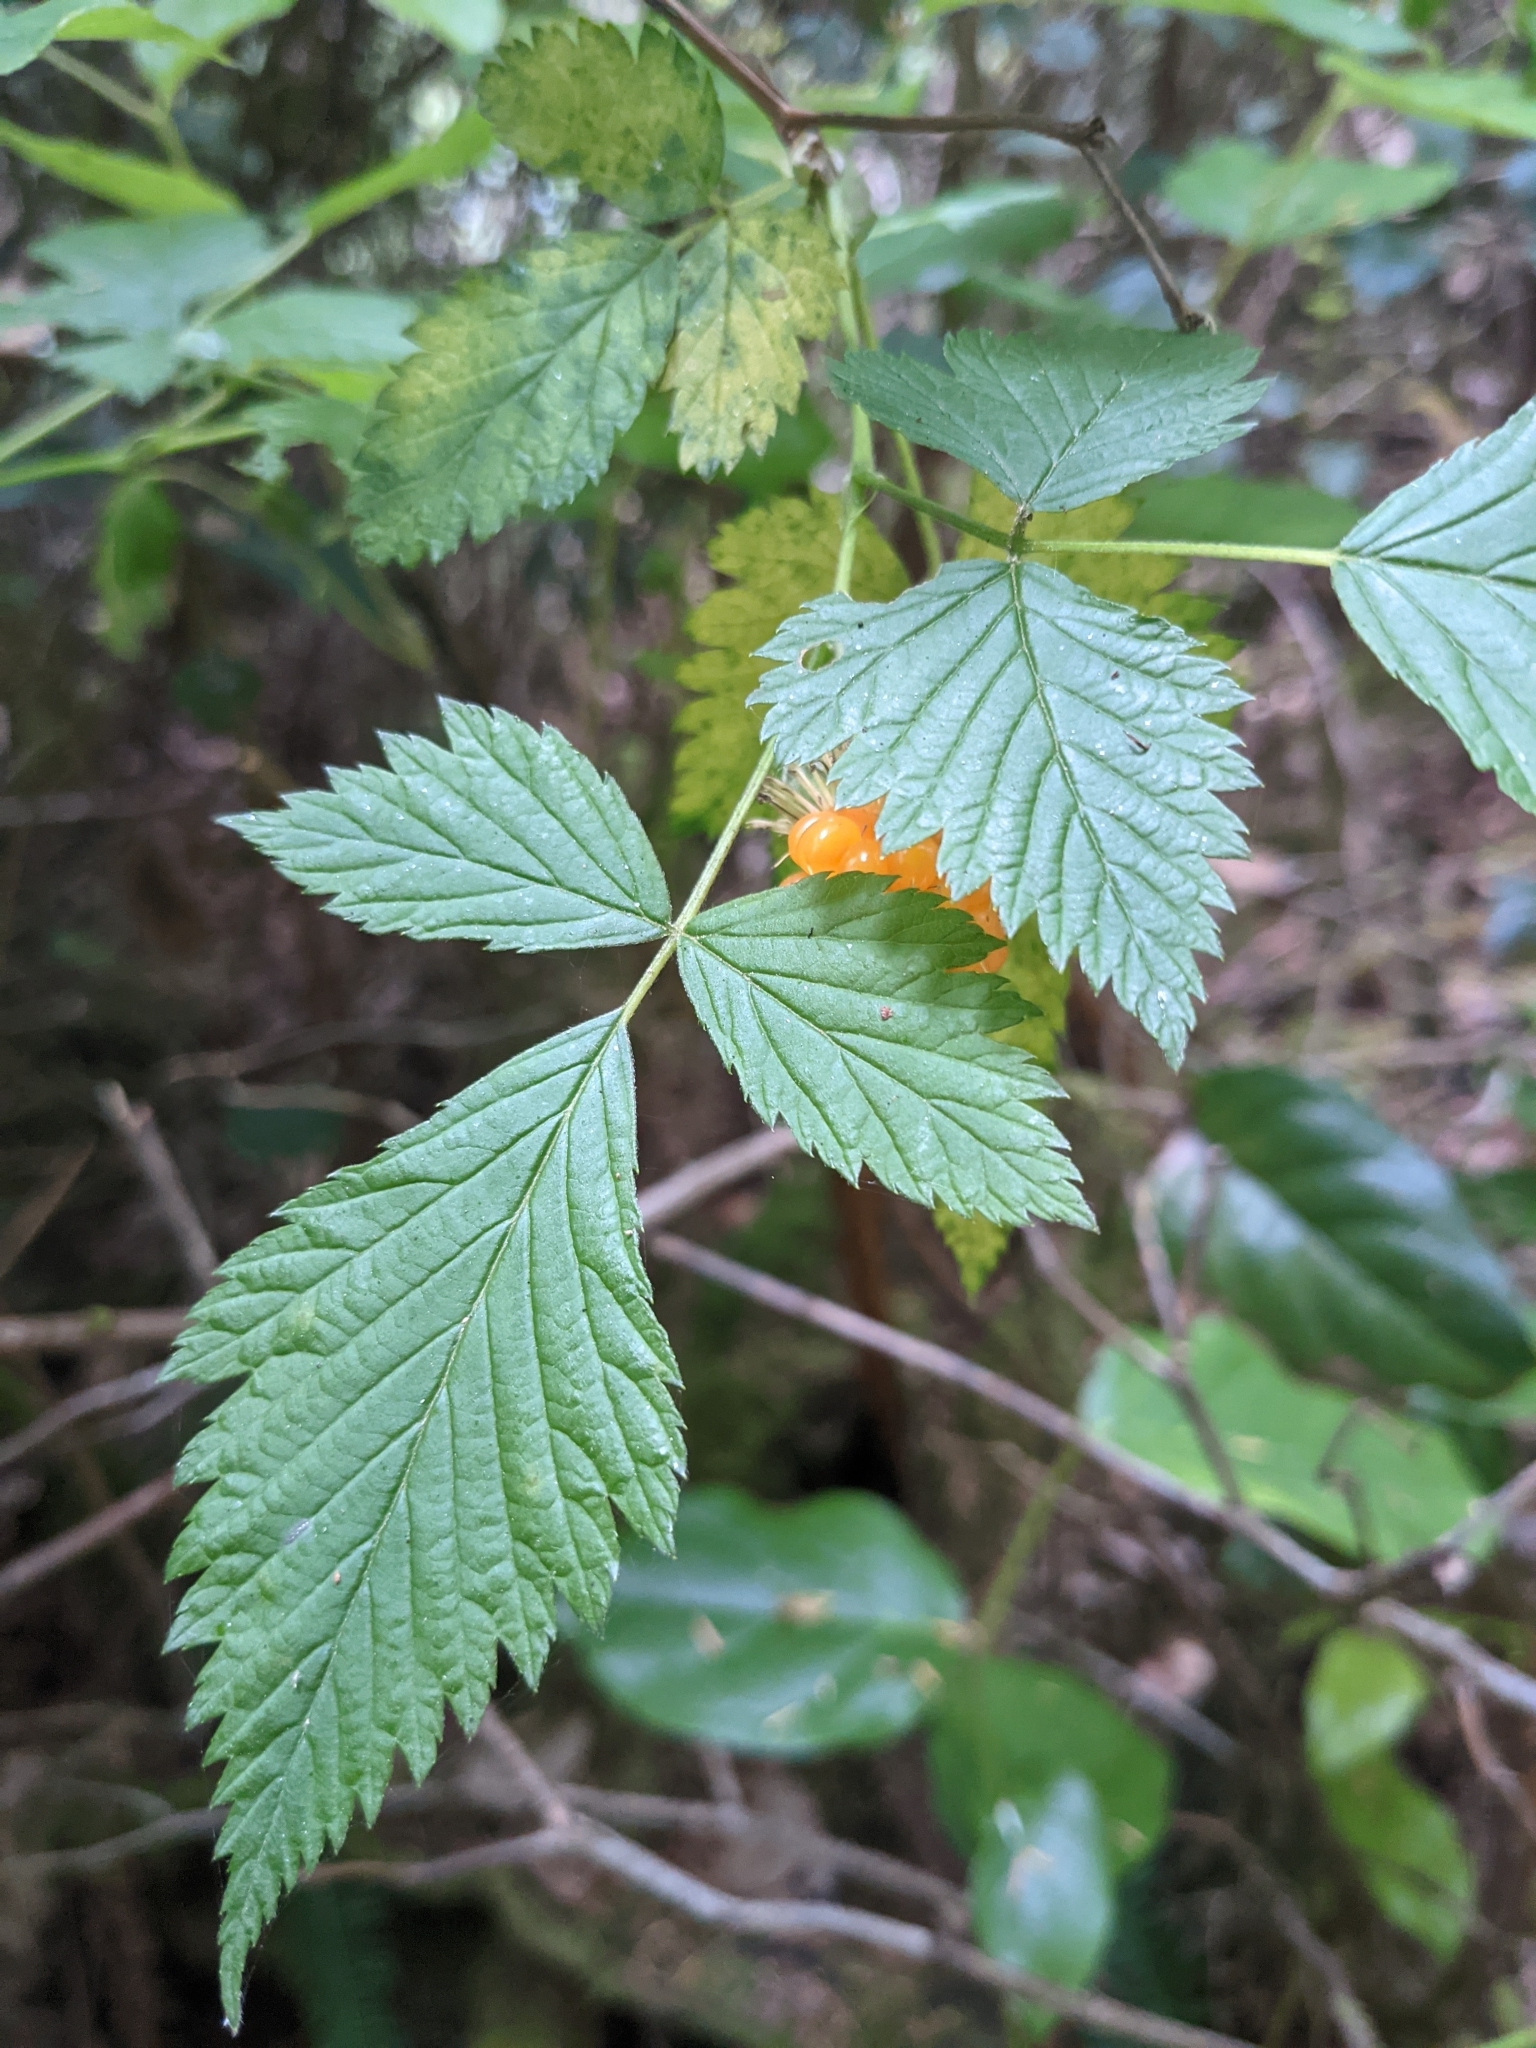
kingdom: Plantae
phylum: Tracheophyta
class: Magnoliopsida
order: Rosales
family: Rosaceae
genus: Rubus
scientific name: Rubus spectabilis
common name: Salmonberry
